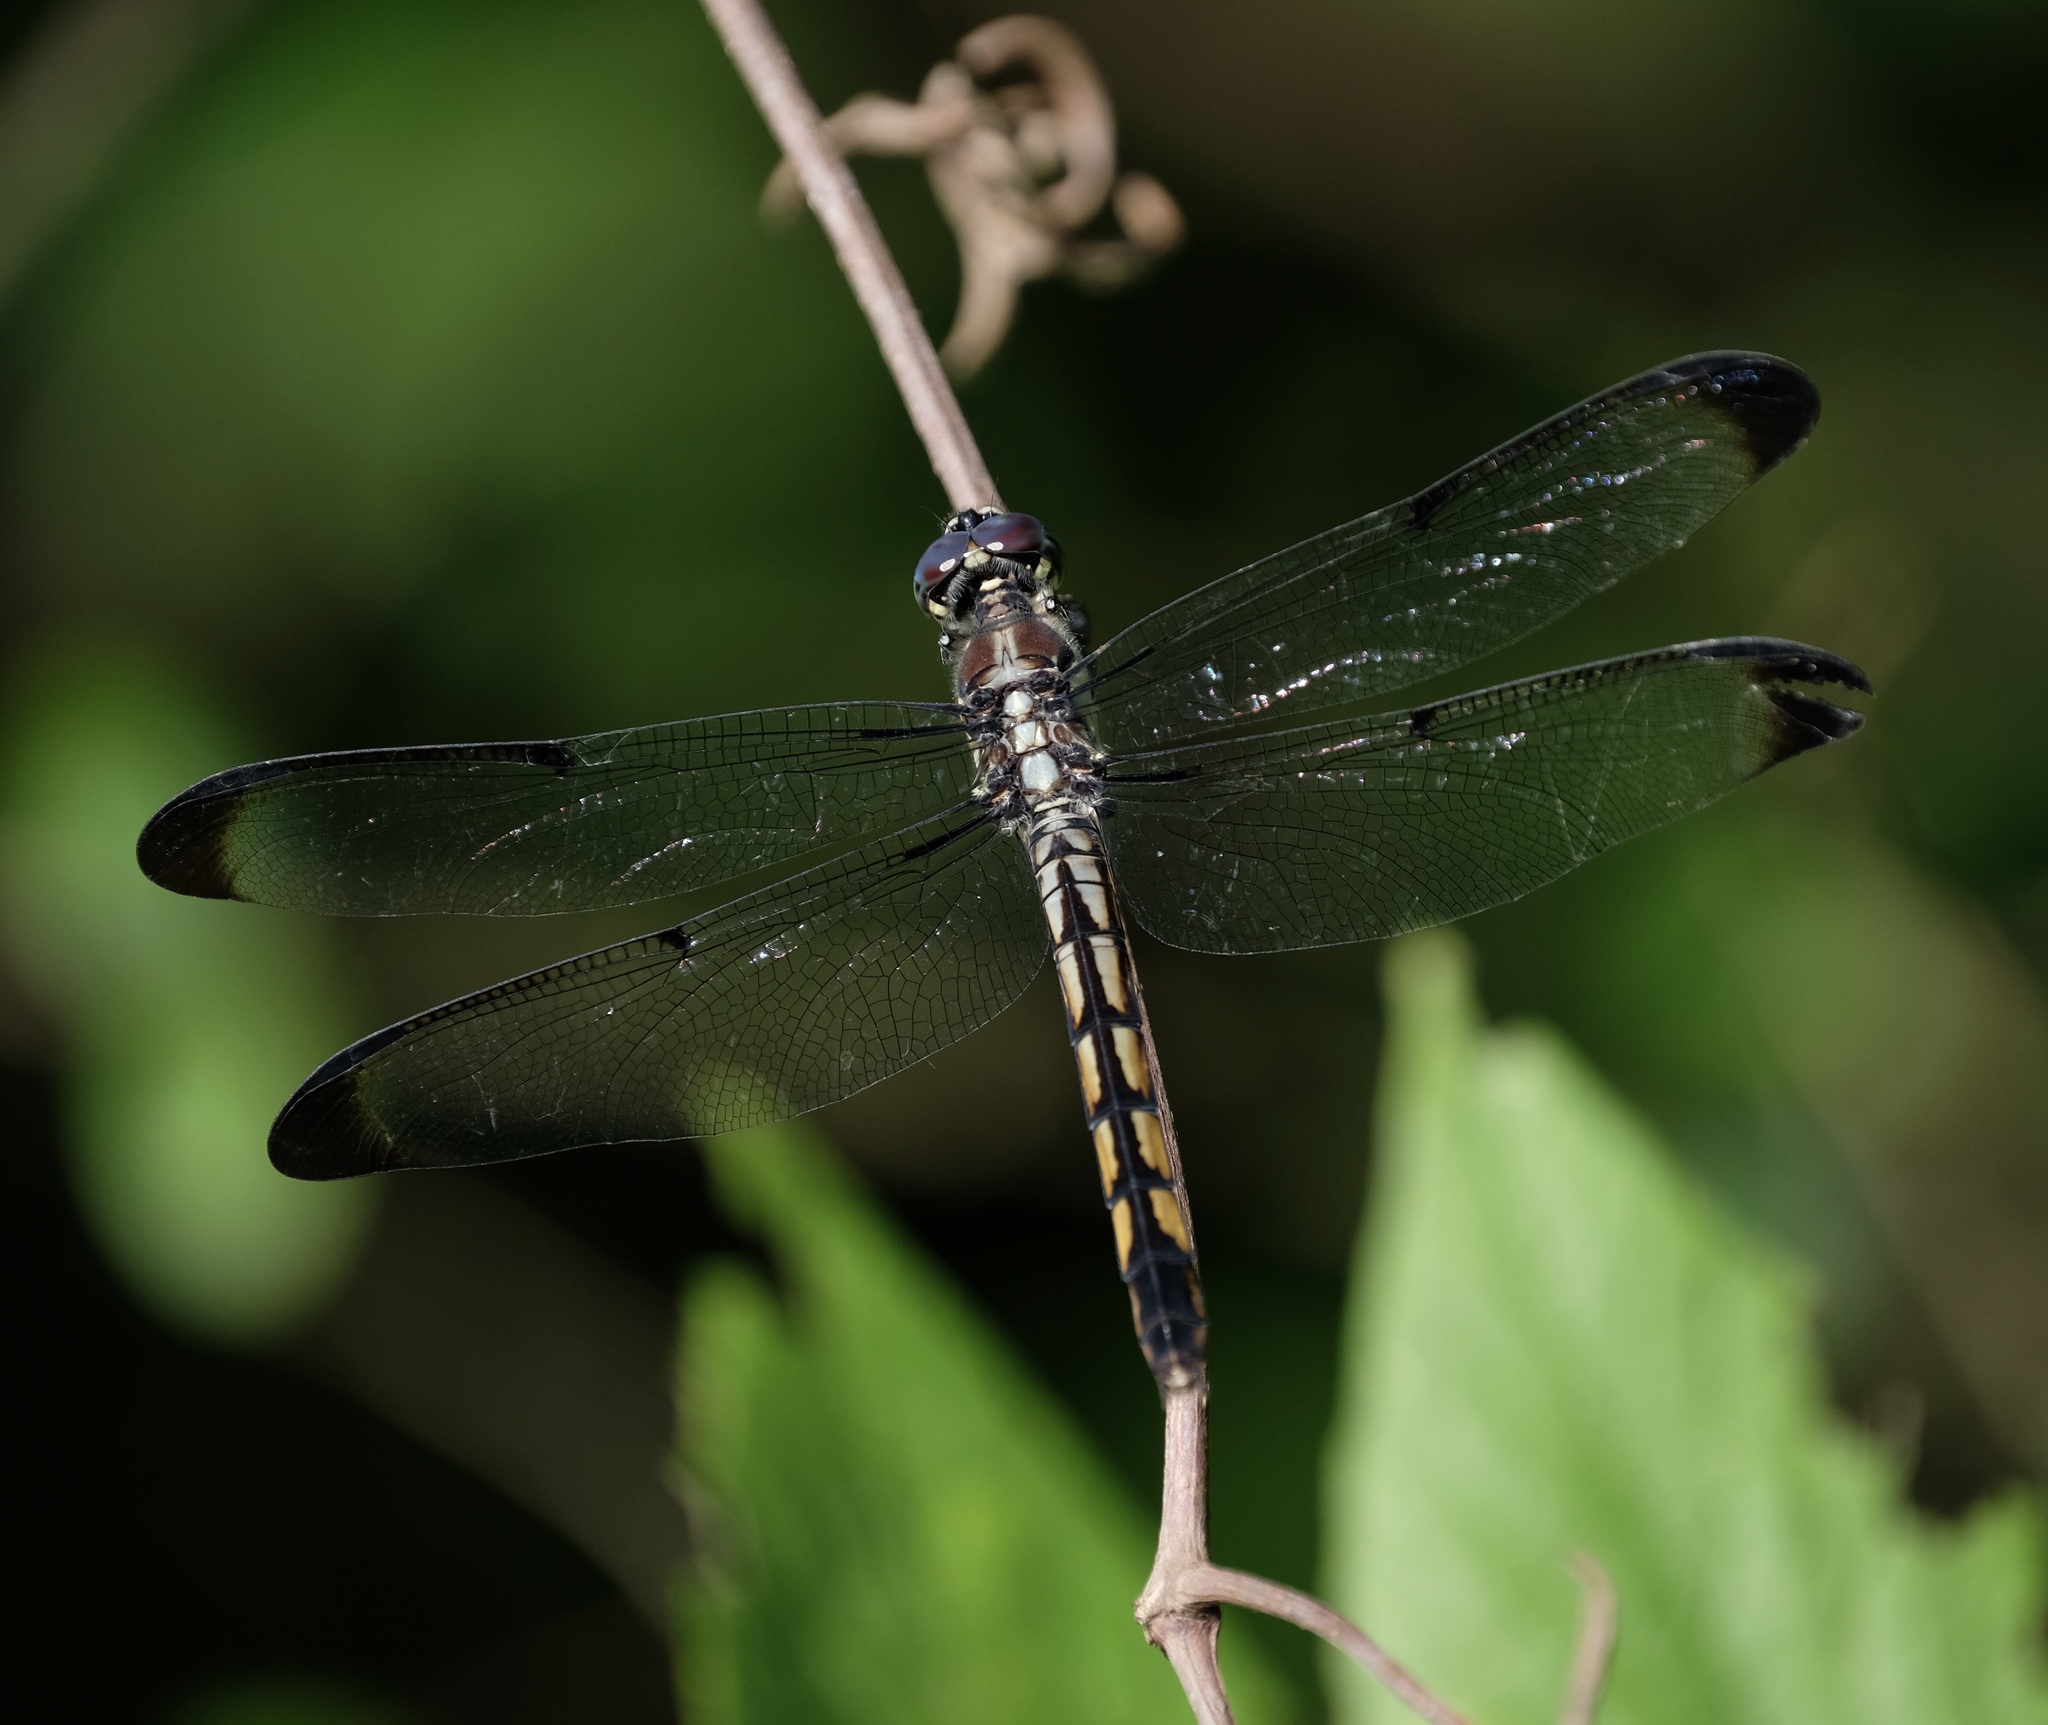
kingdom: Animalia
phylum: Arthropoda
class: Insecta
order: Odonata
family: Libellulidae
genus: Libellula
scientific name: Libellula vibrans
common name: Great blue skimmer
